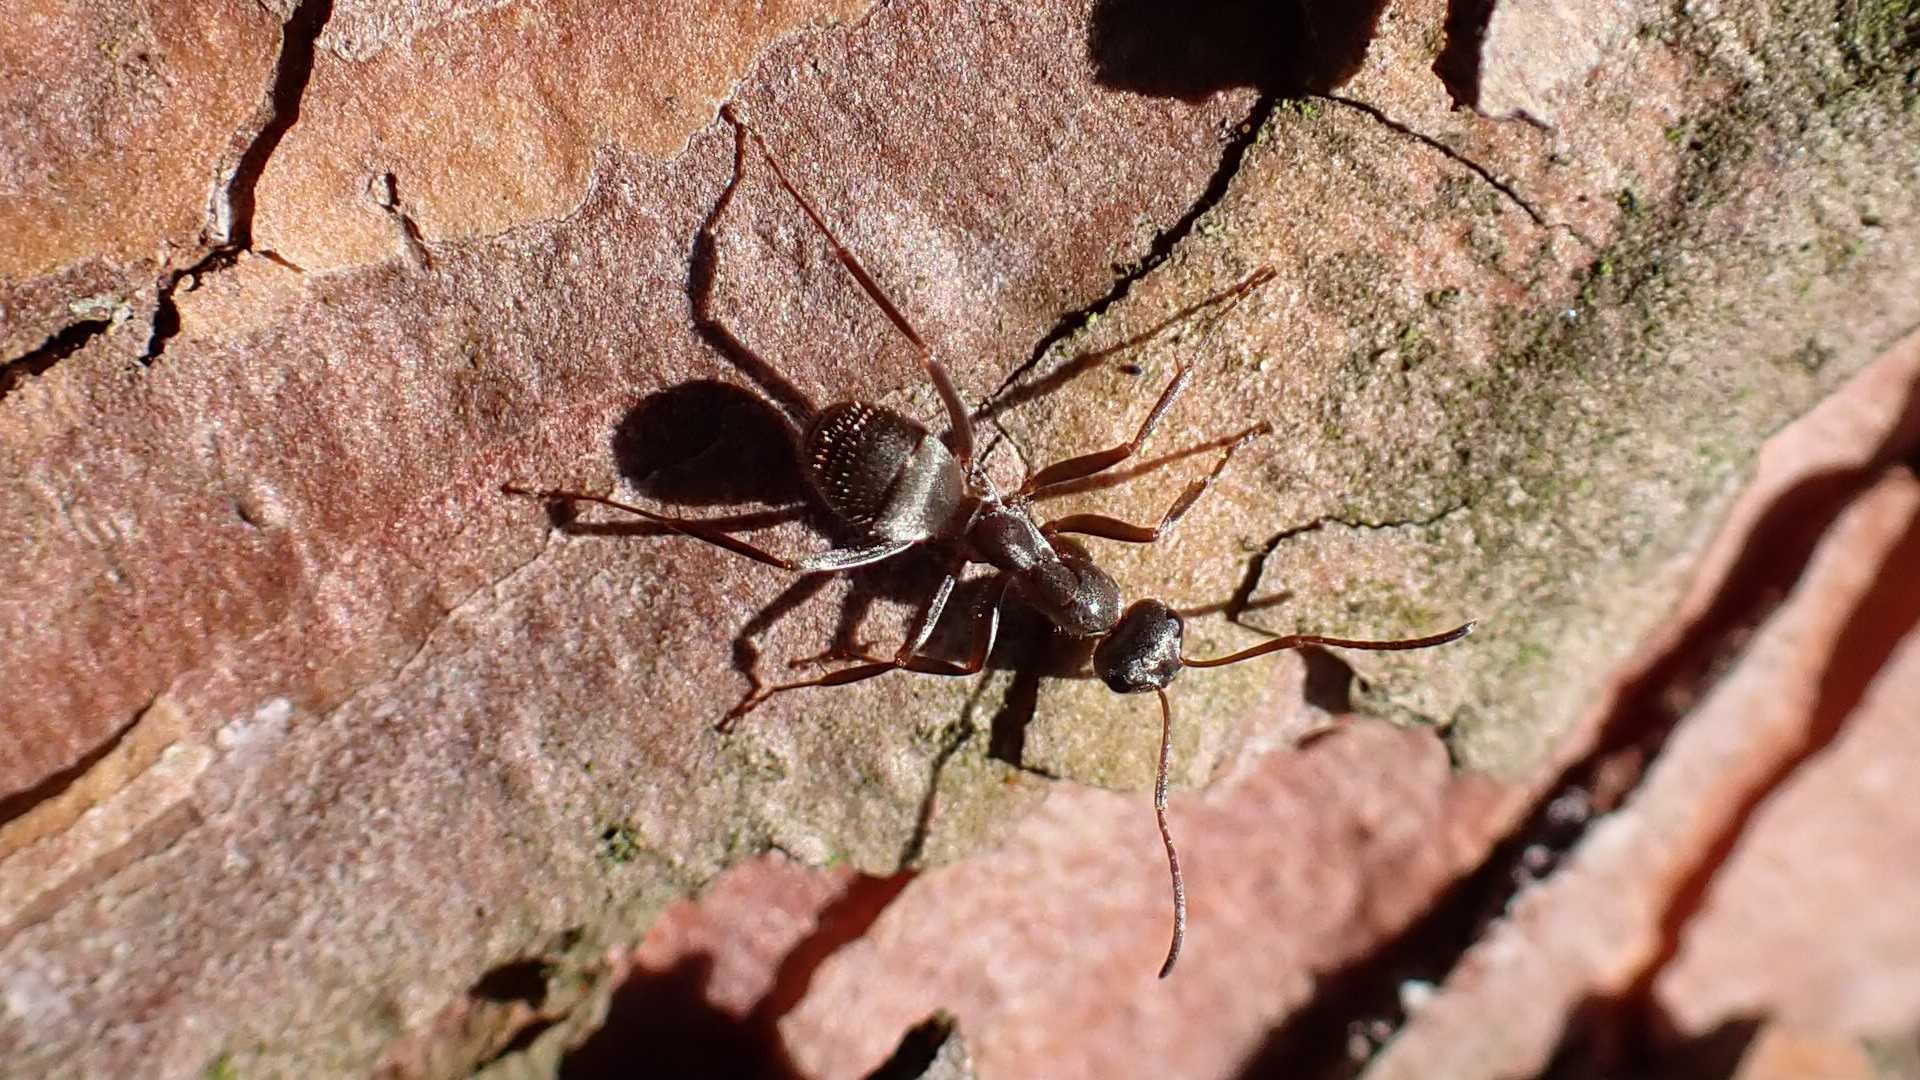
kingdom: Animalia
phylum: Arthropoda
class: Insecta
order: Hymenoptera
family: Formicidae
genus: Formica
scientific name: Formica cinerea
